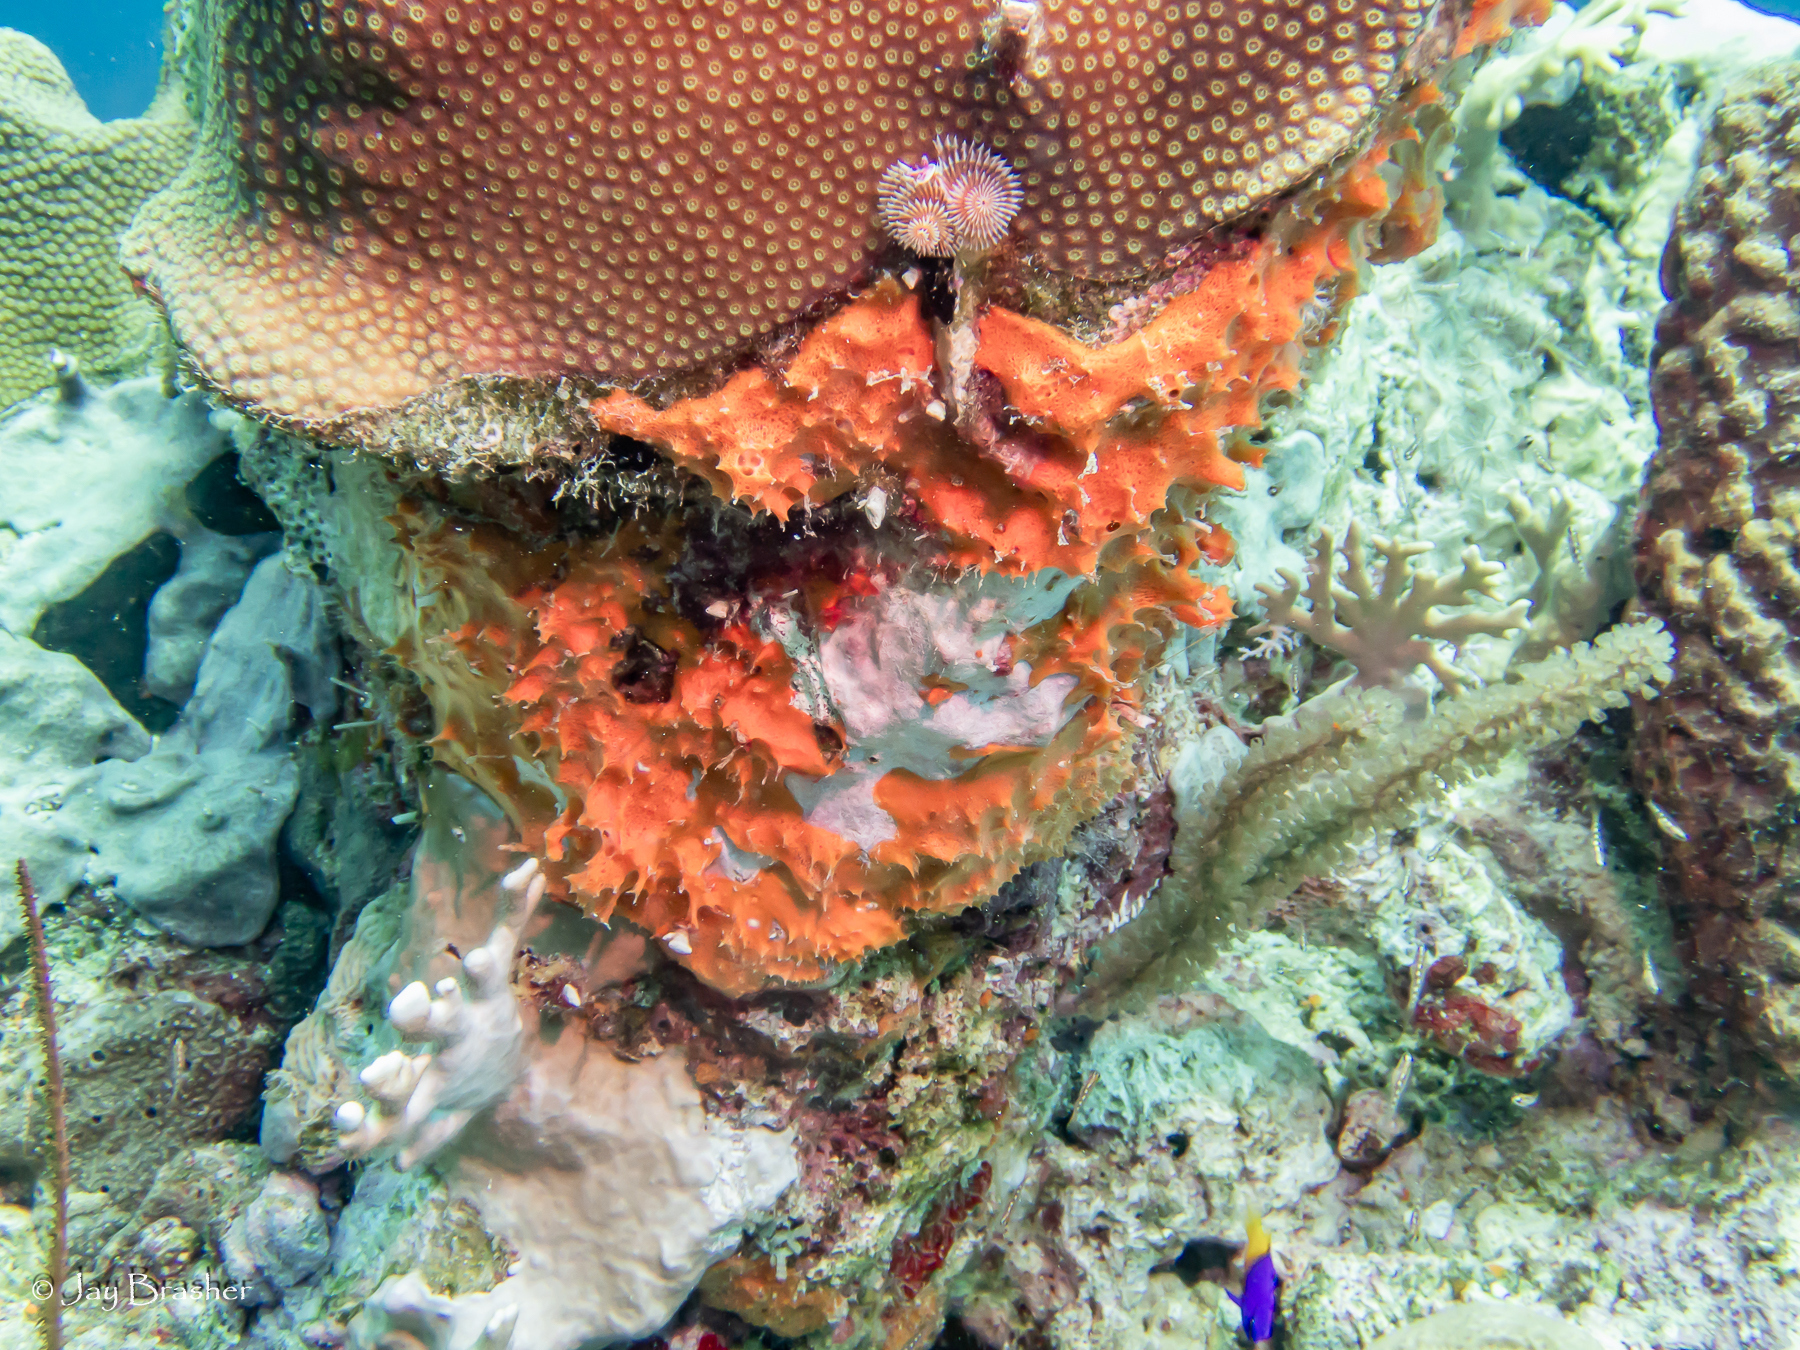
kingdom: Animalia
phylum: Porifera
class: Demospongiae
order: Scopalinida
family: Scopalinidae
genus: Scopalina
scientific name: Scopalina ruetzleri
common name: Orange lumpy encrusting sponge
